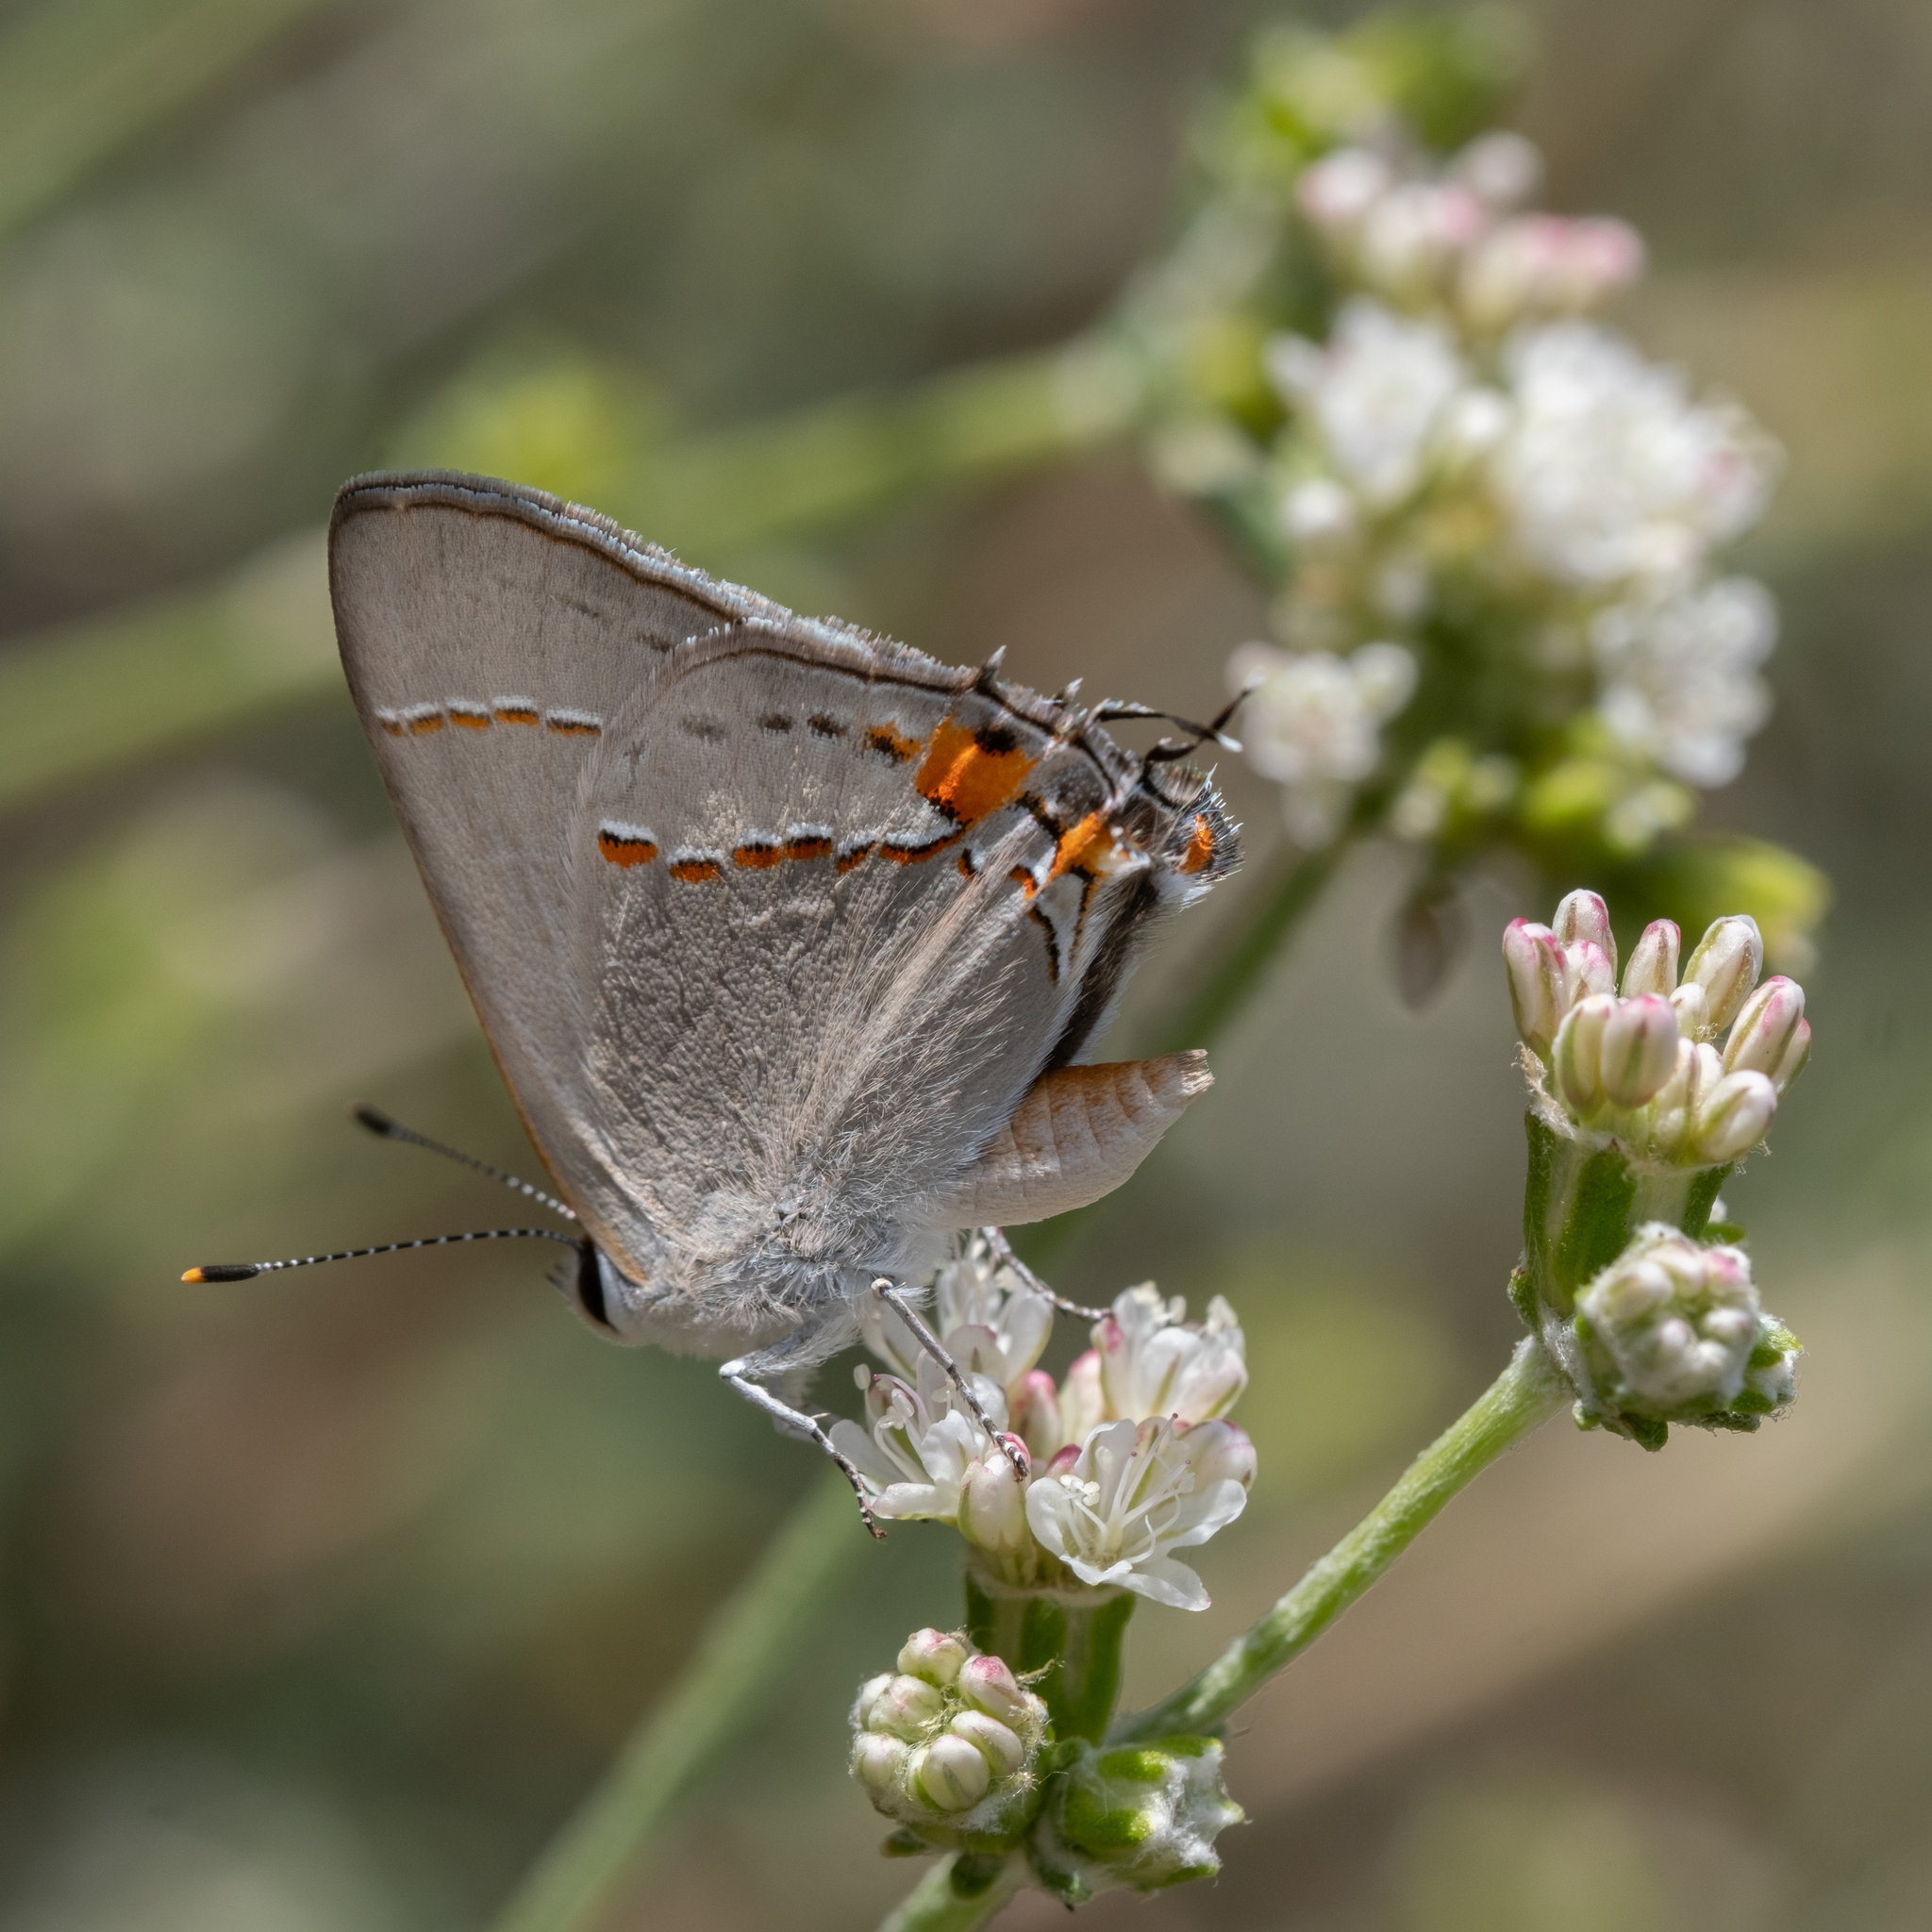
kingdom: Animalia
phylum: Arthropoda
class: Insecta
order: Lepidoptera
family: Lycaenidae
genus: Strymon
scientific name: Strymon melinus
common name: Gray hairstreak
